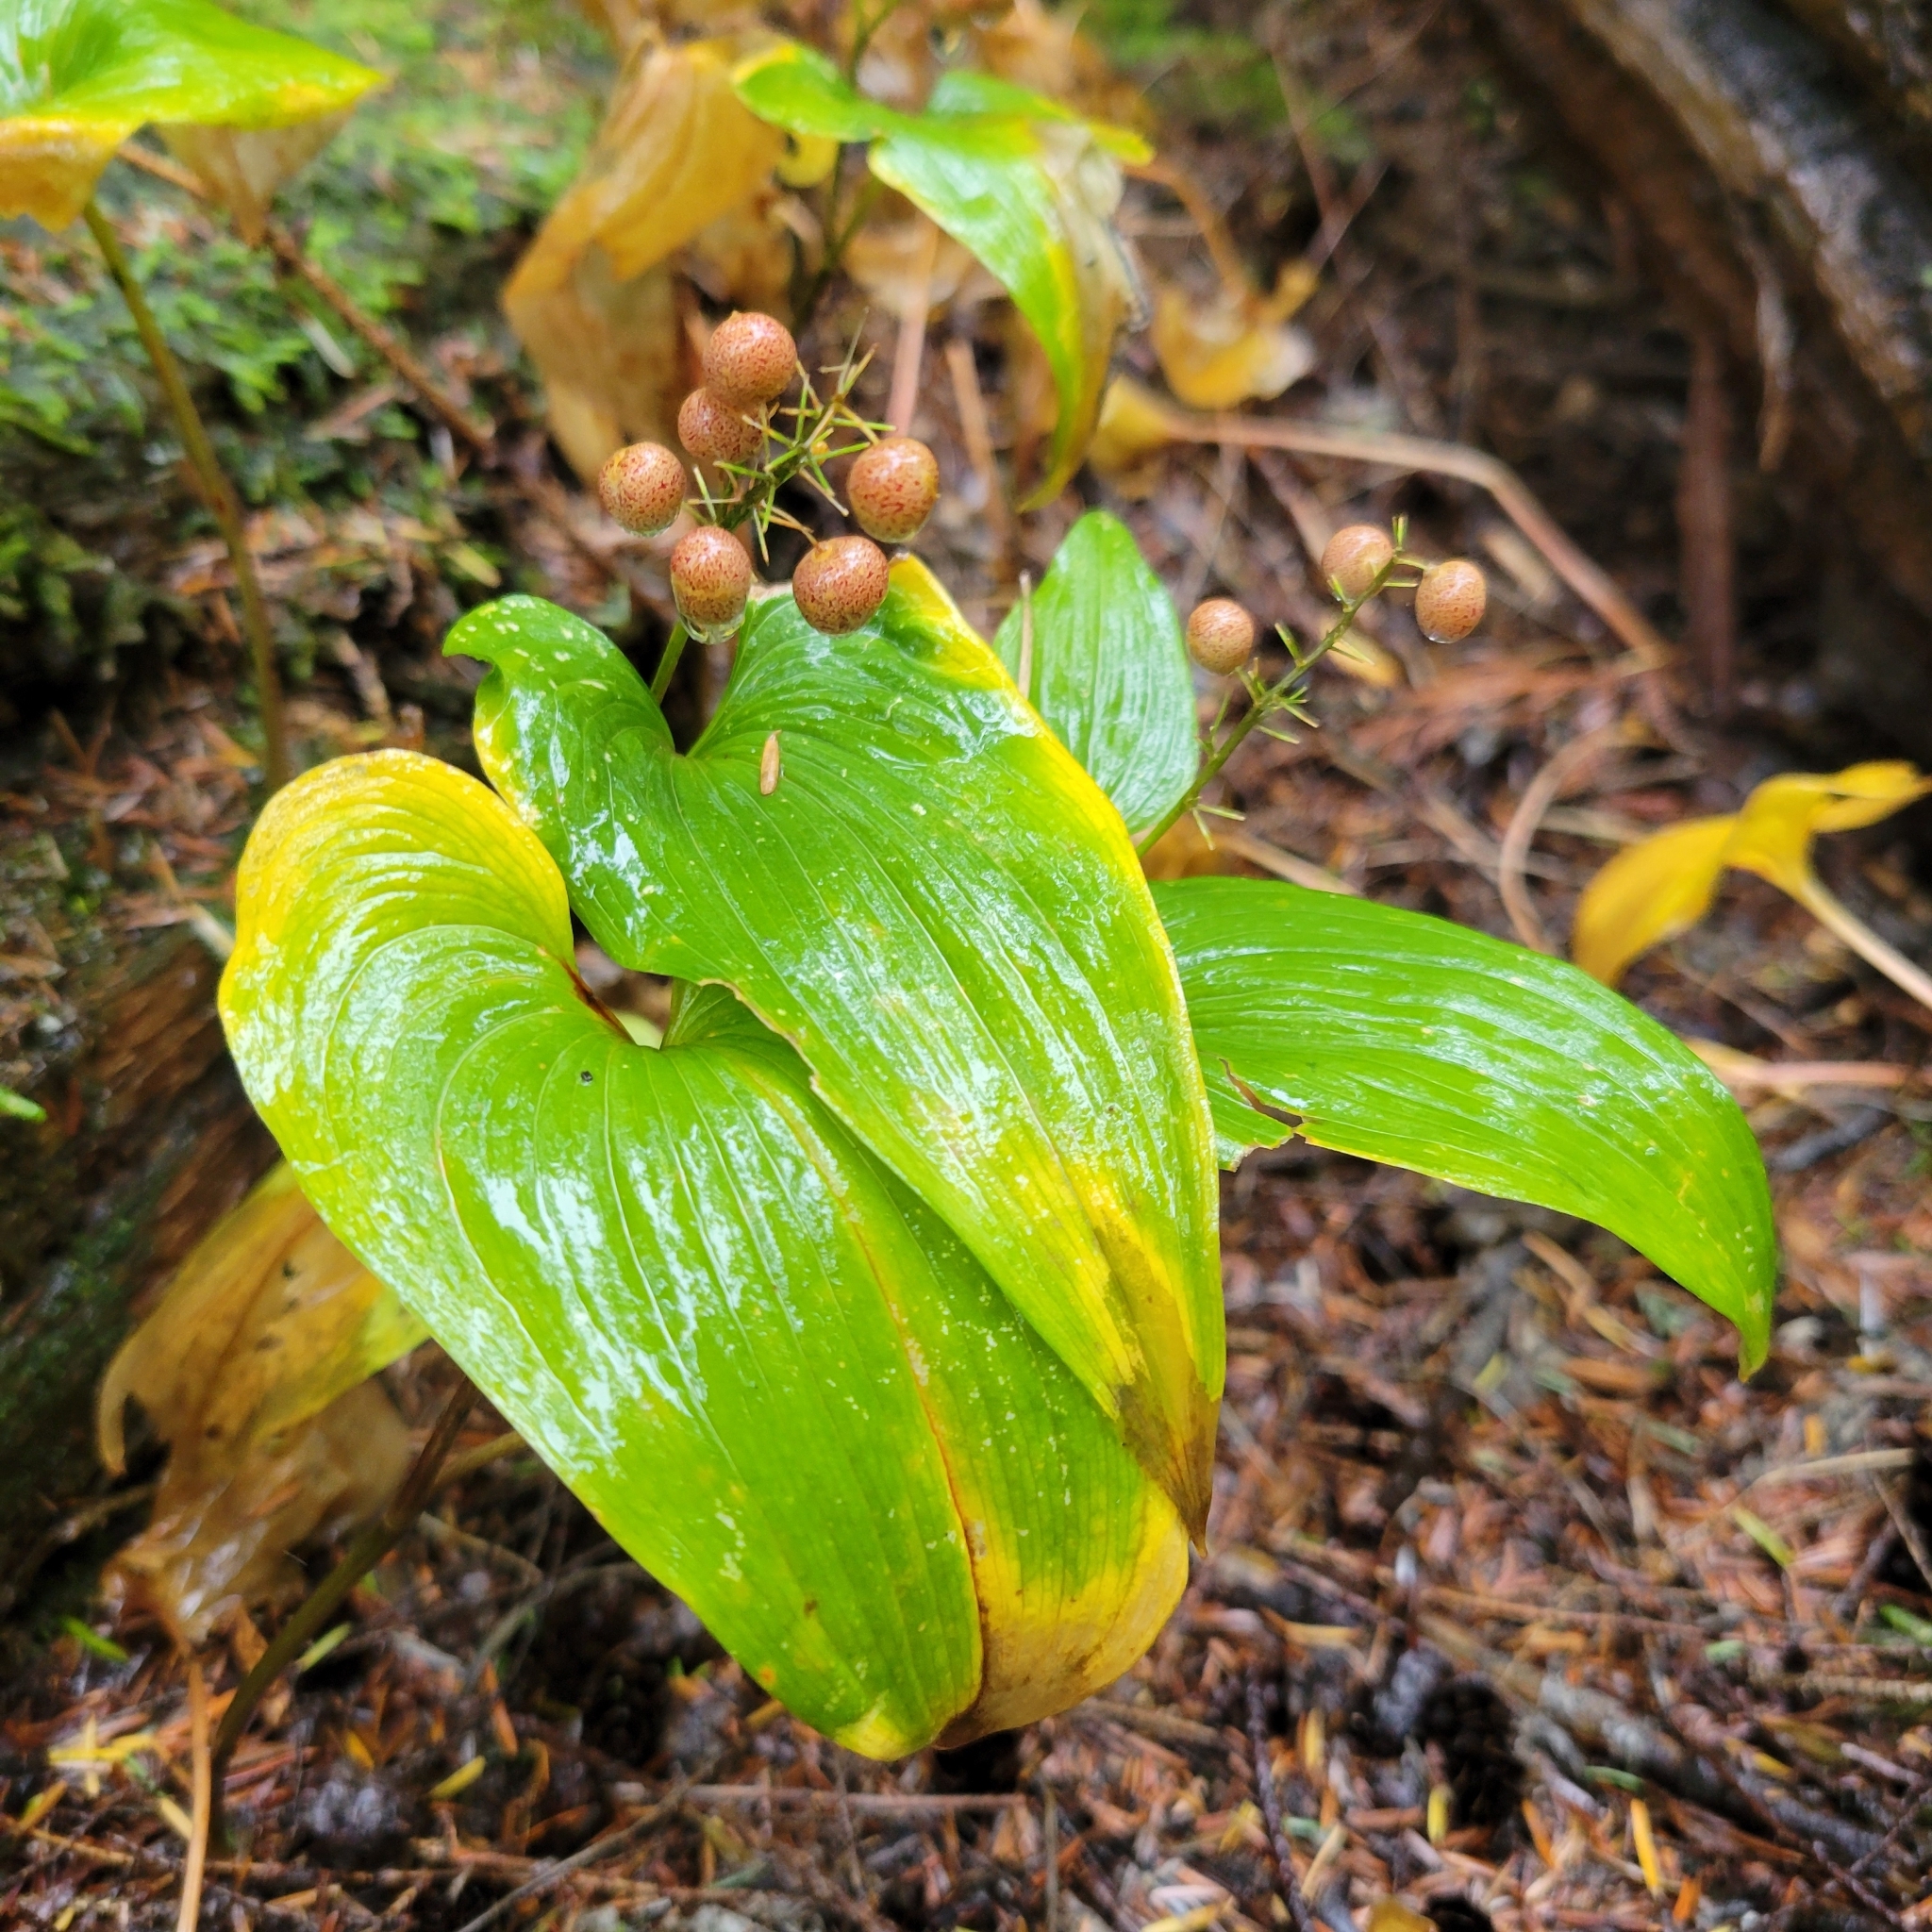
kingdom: Plantae
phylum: Tracheophyta
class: Liliopsida
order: Asparagales
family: Asparagaceae
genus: Maianthemum
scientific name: Maianthemum dilatatum
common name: False lily-of-the-valley
